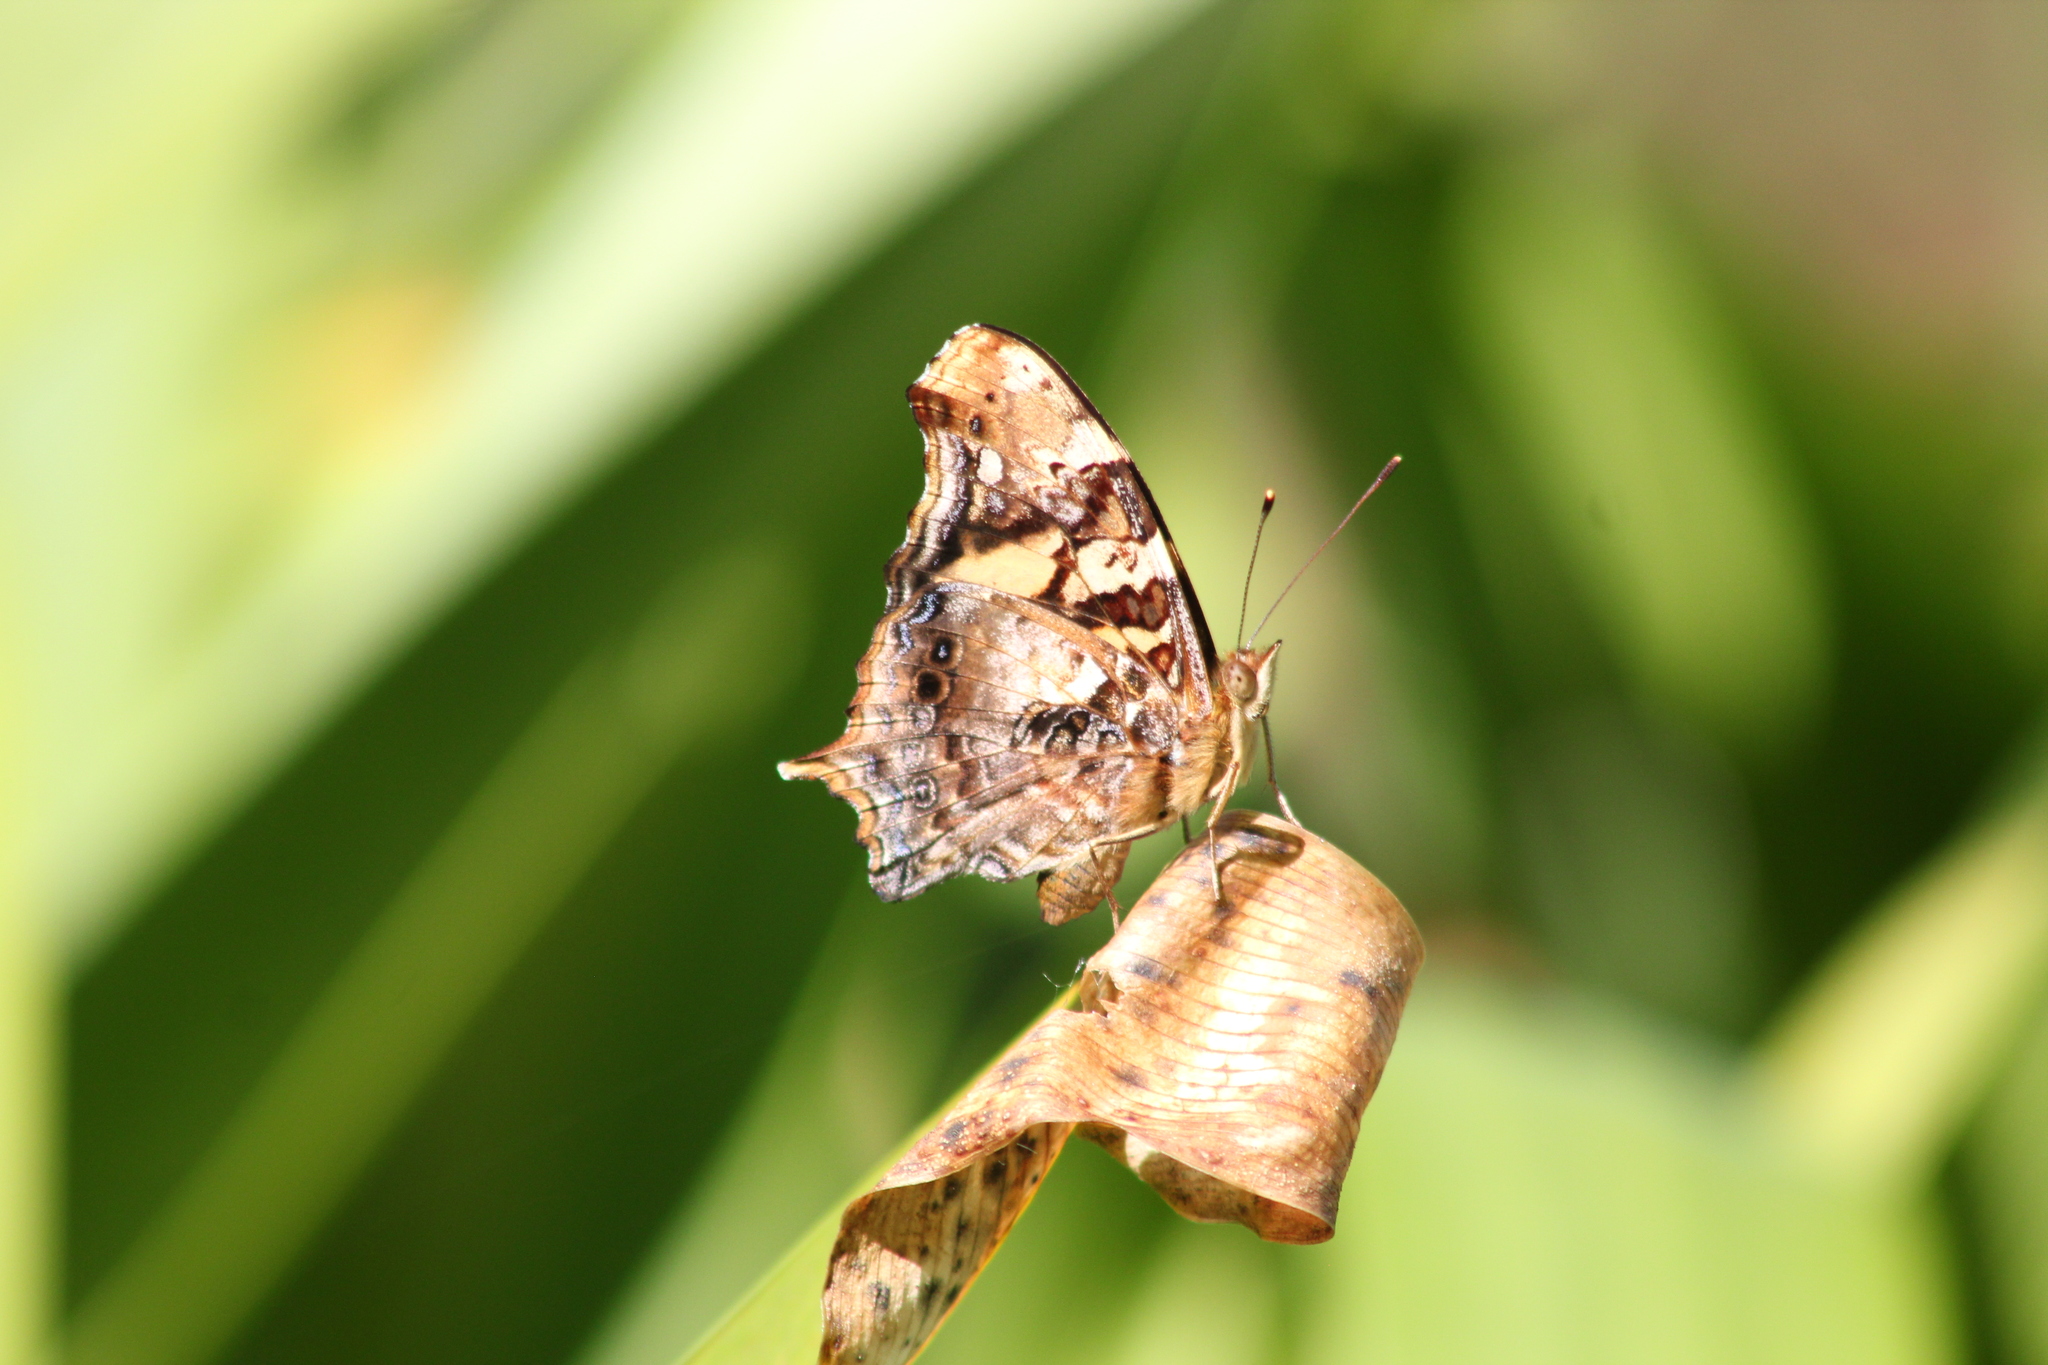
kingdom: Animalia
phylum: Arthropoda
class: Insecta
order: Lepidoptera
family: Nymphalidae
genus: Hypanartia
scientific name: Hypanartia bella
